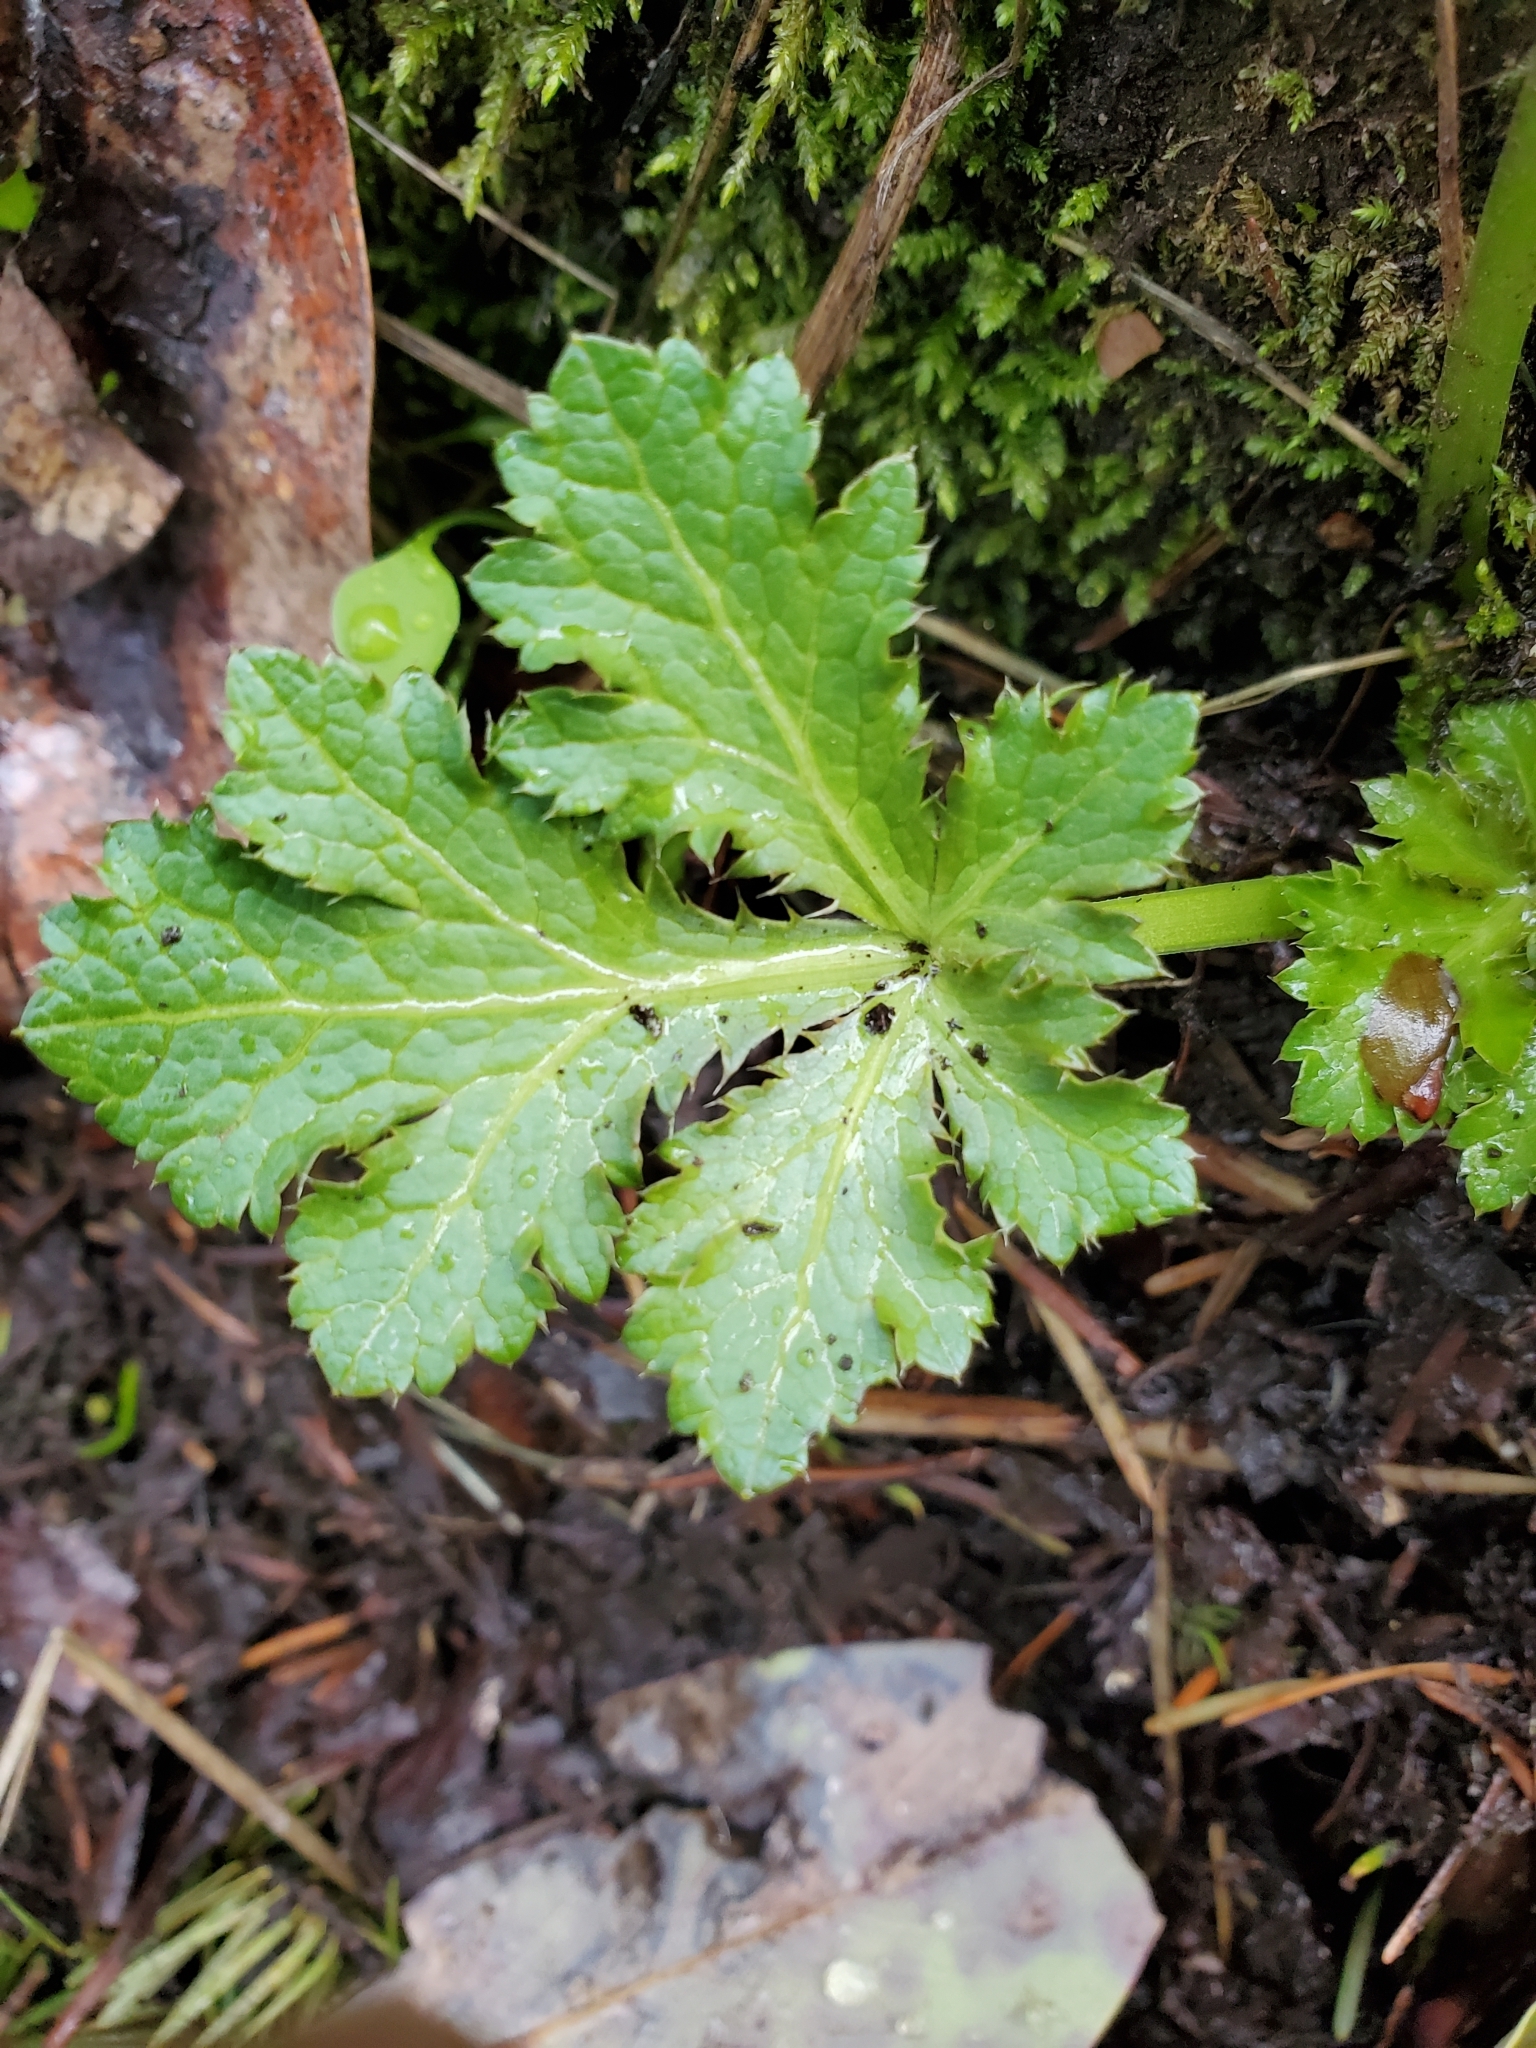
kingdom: Plantae
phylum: Tracheophyta
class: Magnoliopsida
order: Apiales
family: Apiaceae
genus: Sanicula
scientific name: Sanicula crassicaulis
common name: Western snakeroot
